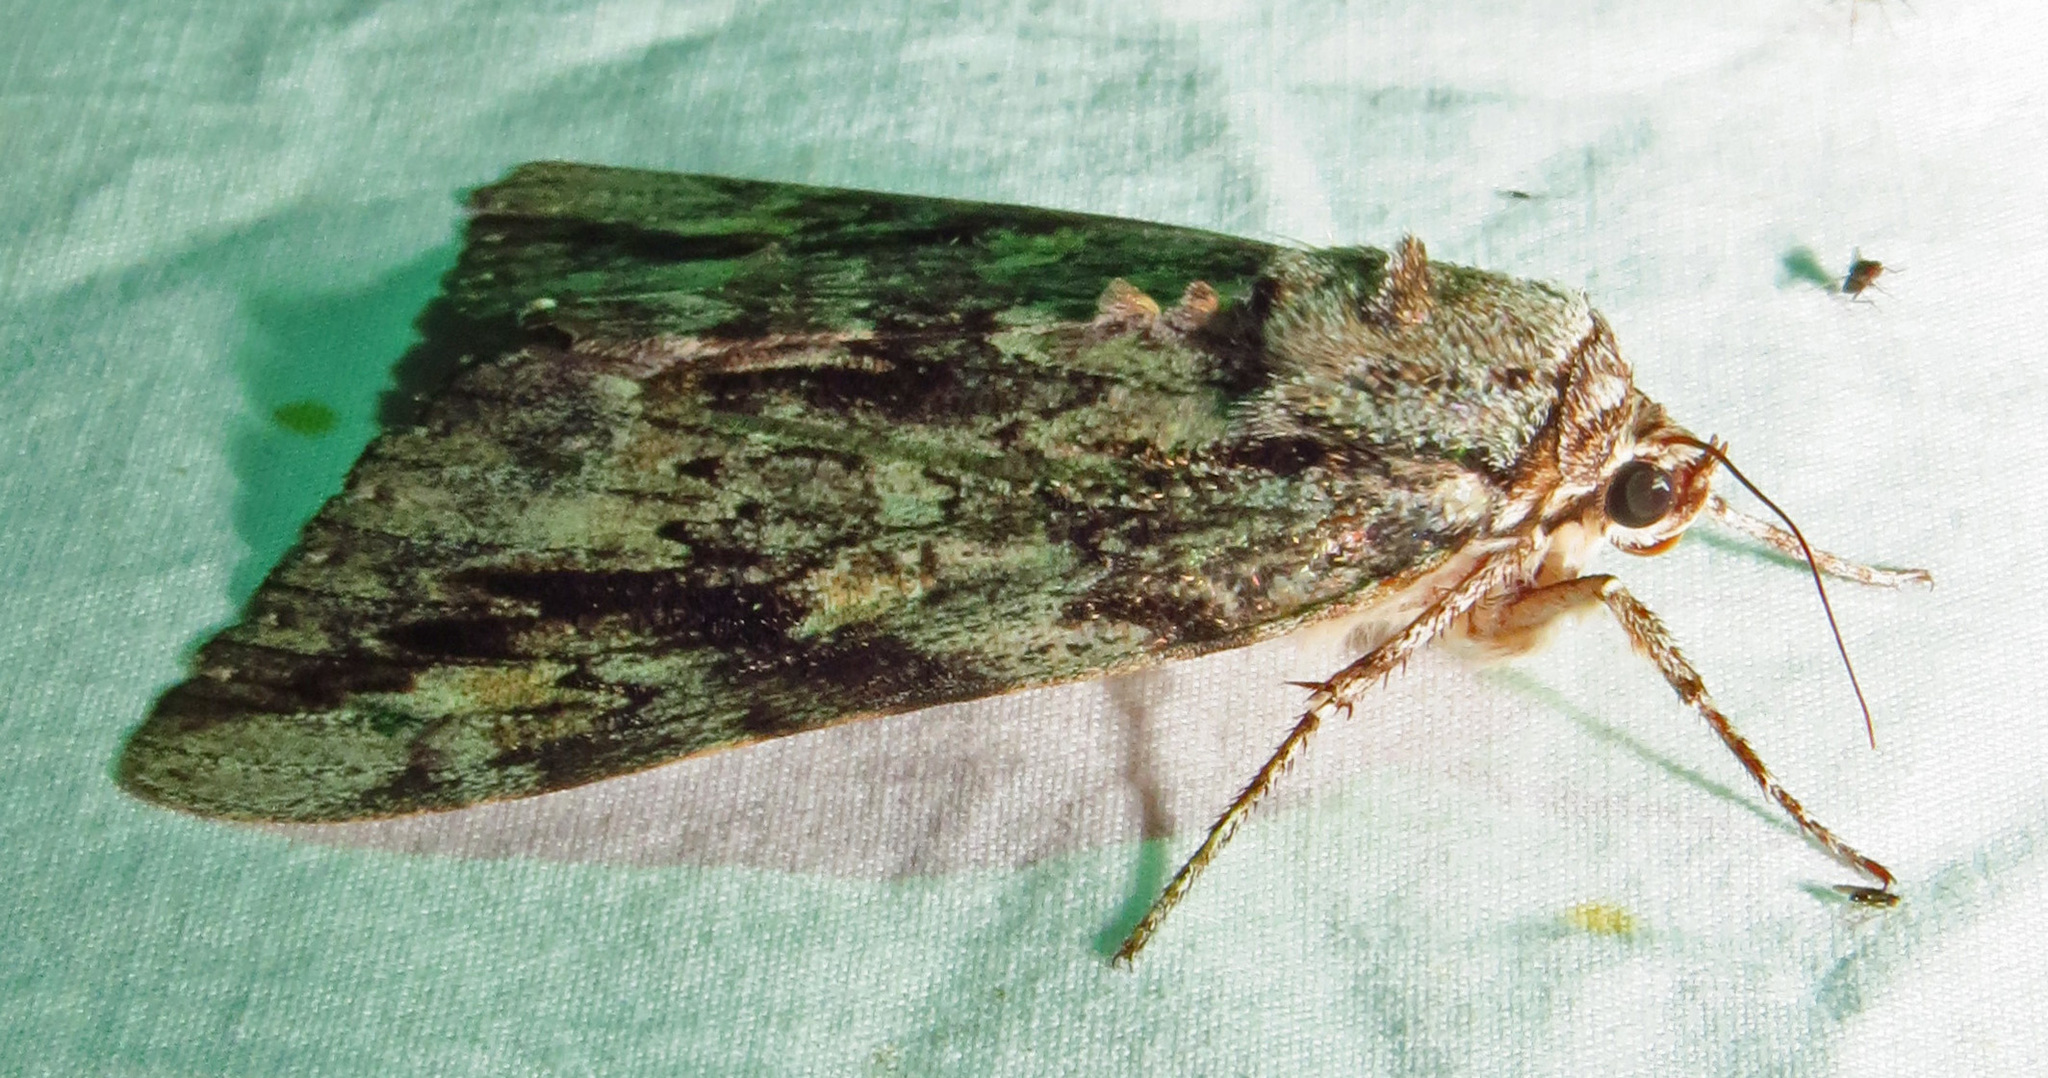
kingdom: Animalia
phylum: Arthropoda
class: Insecta
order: Lepidoptera
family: Erebidae
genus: Catocala
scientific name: Catocala maestosa
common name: Sad underwing
